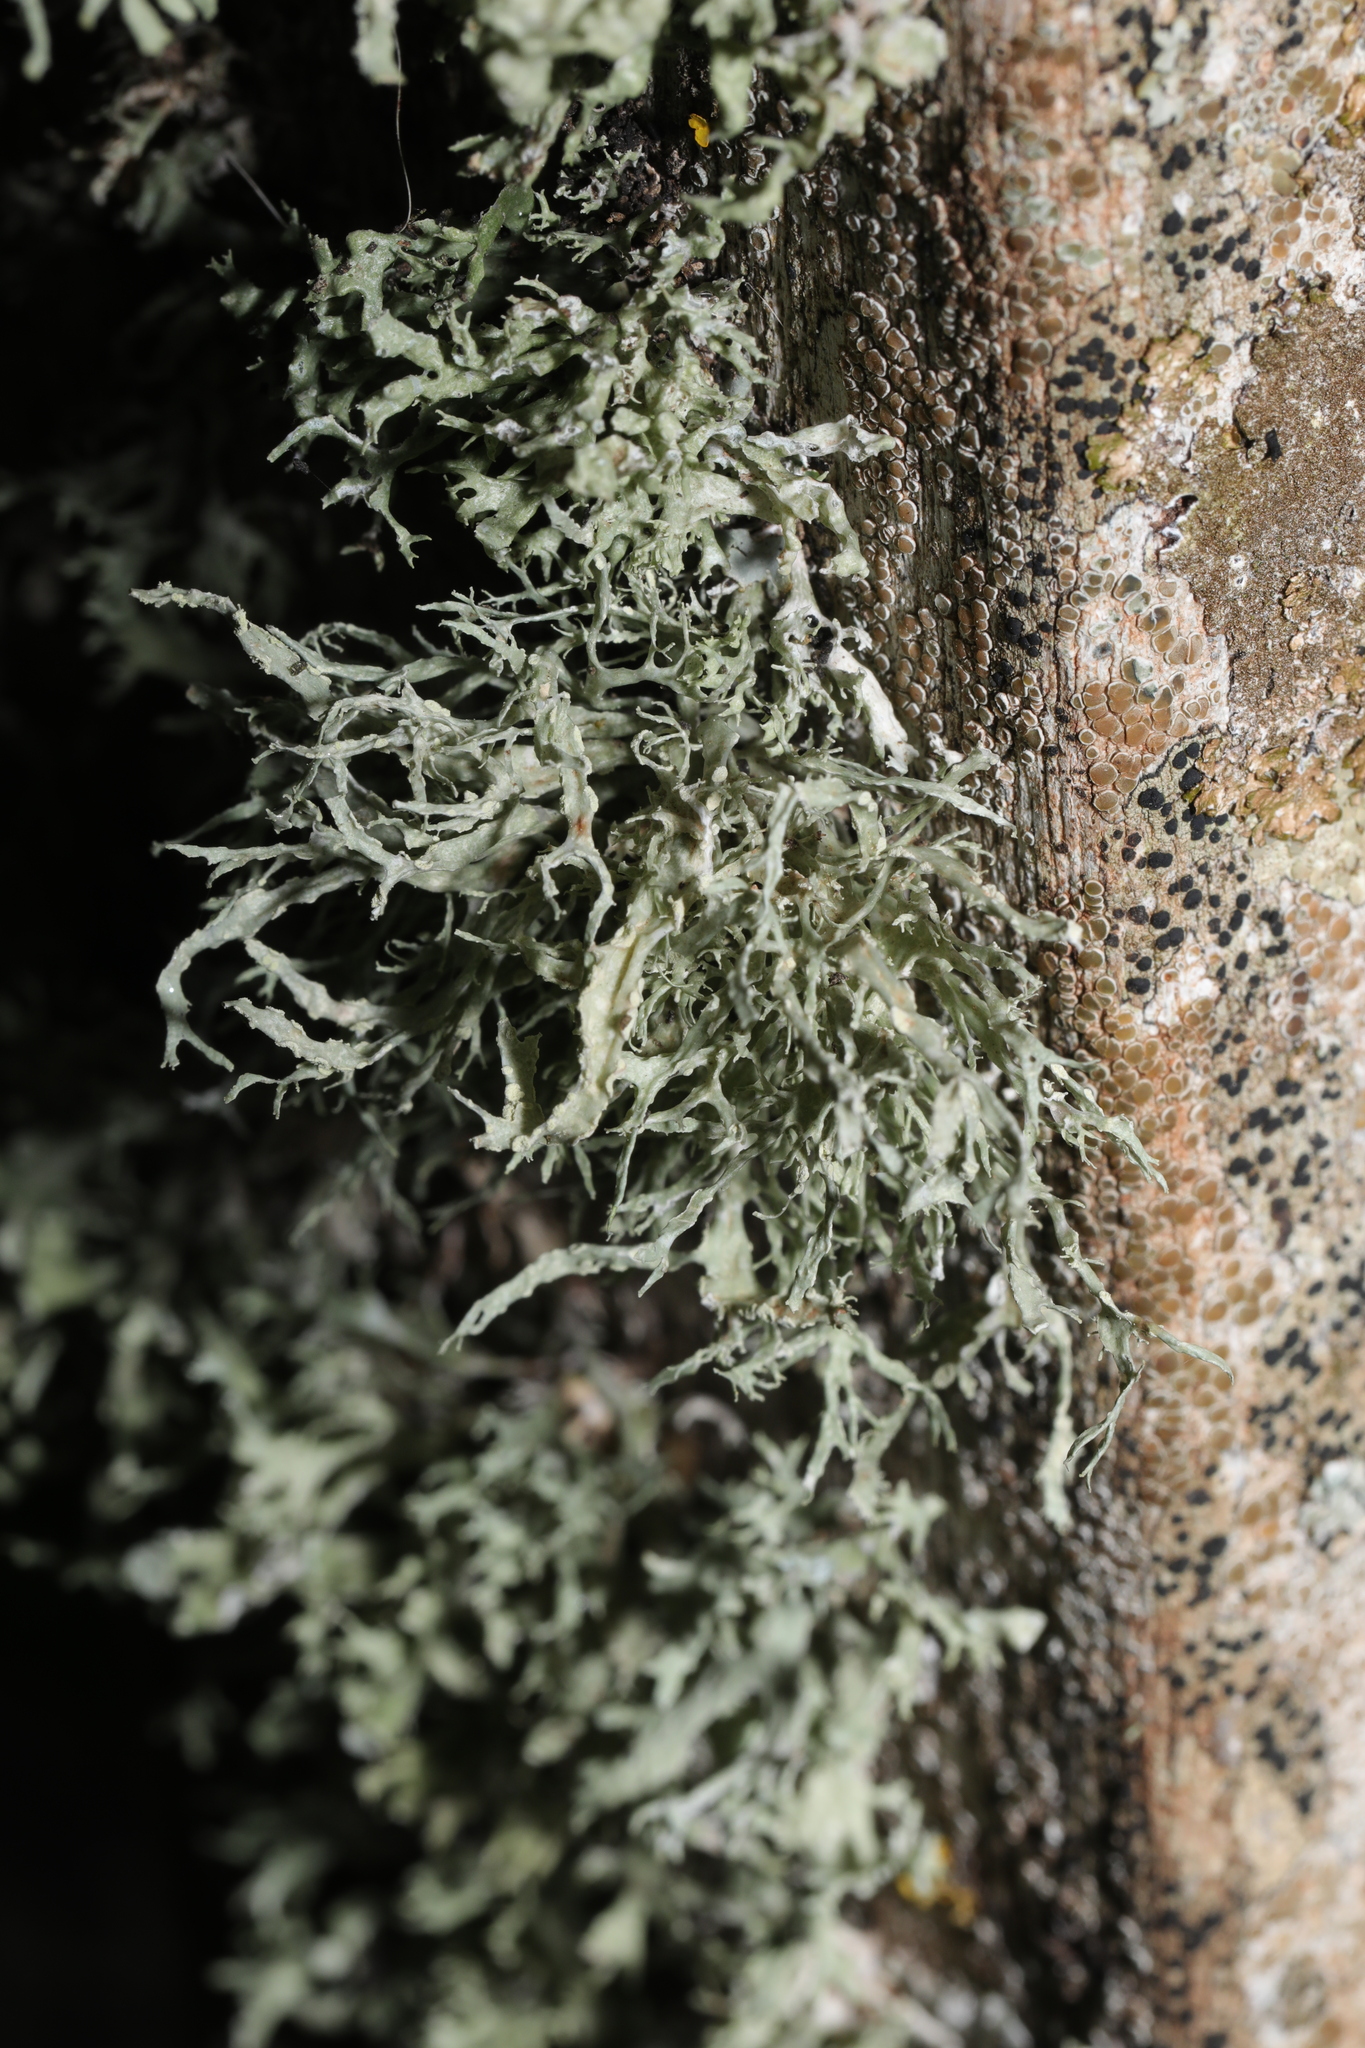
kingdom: Fungi
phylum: Ascomycota
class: Lecanoromycetes
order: Lecanorales
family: Ramalinaceae
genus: Ramalina
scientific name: Ramalina farinacea
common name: Farinose cartilage lichen
